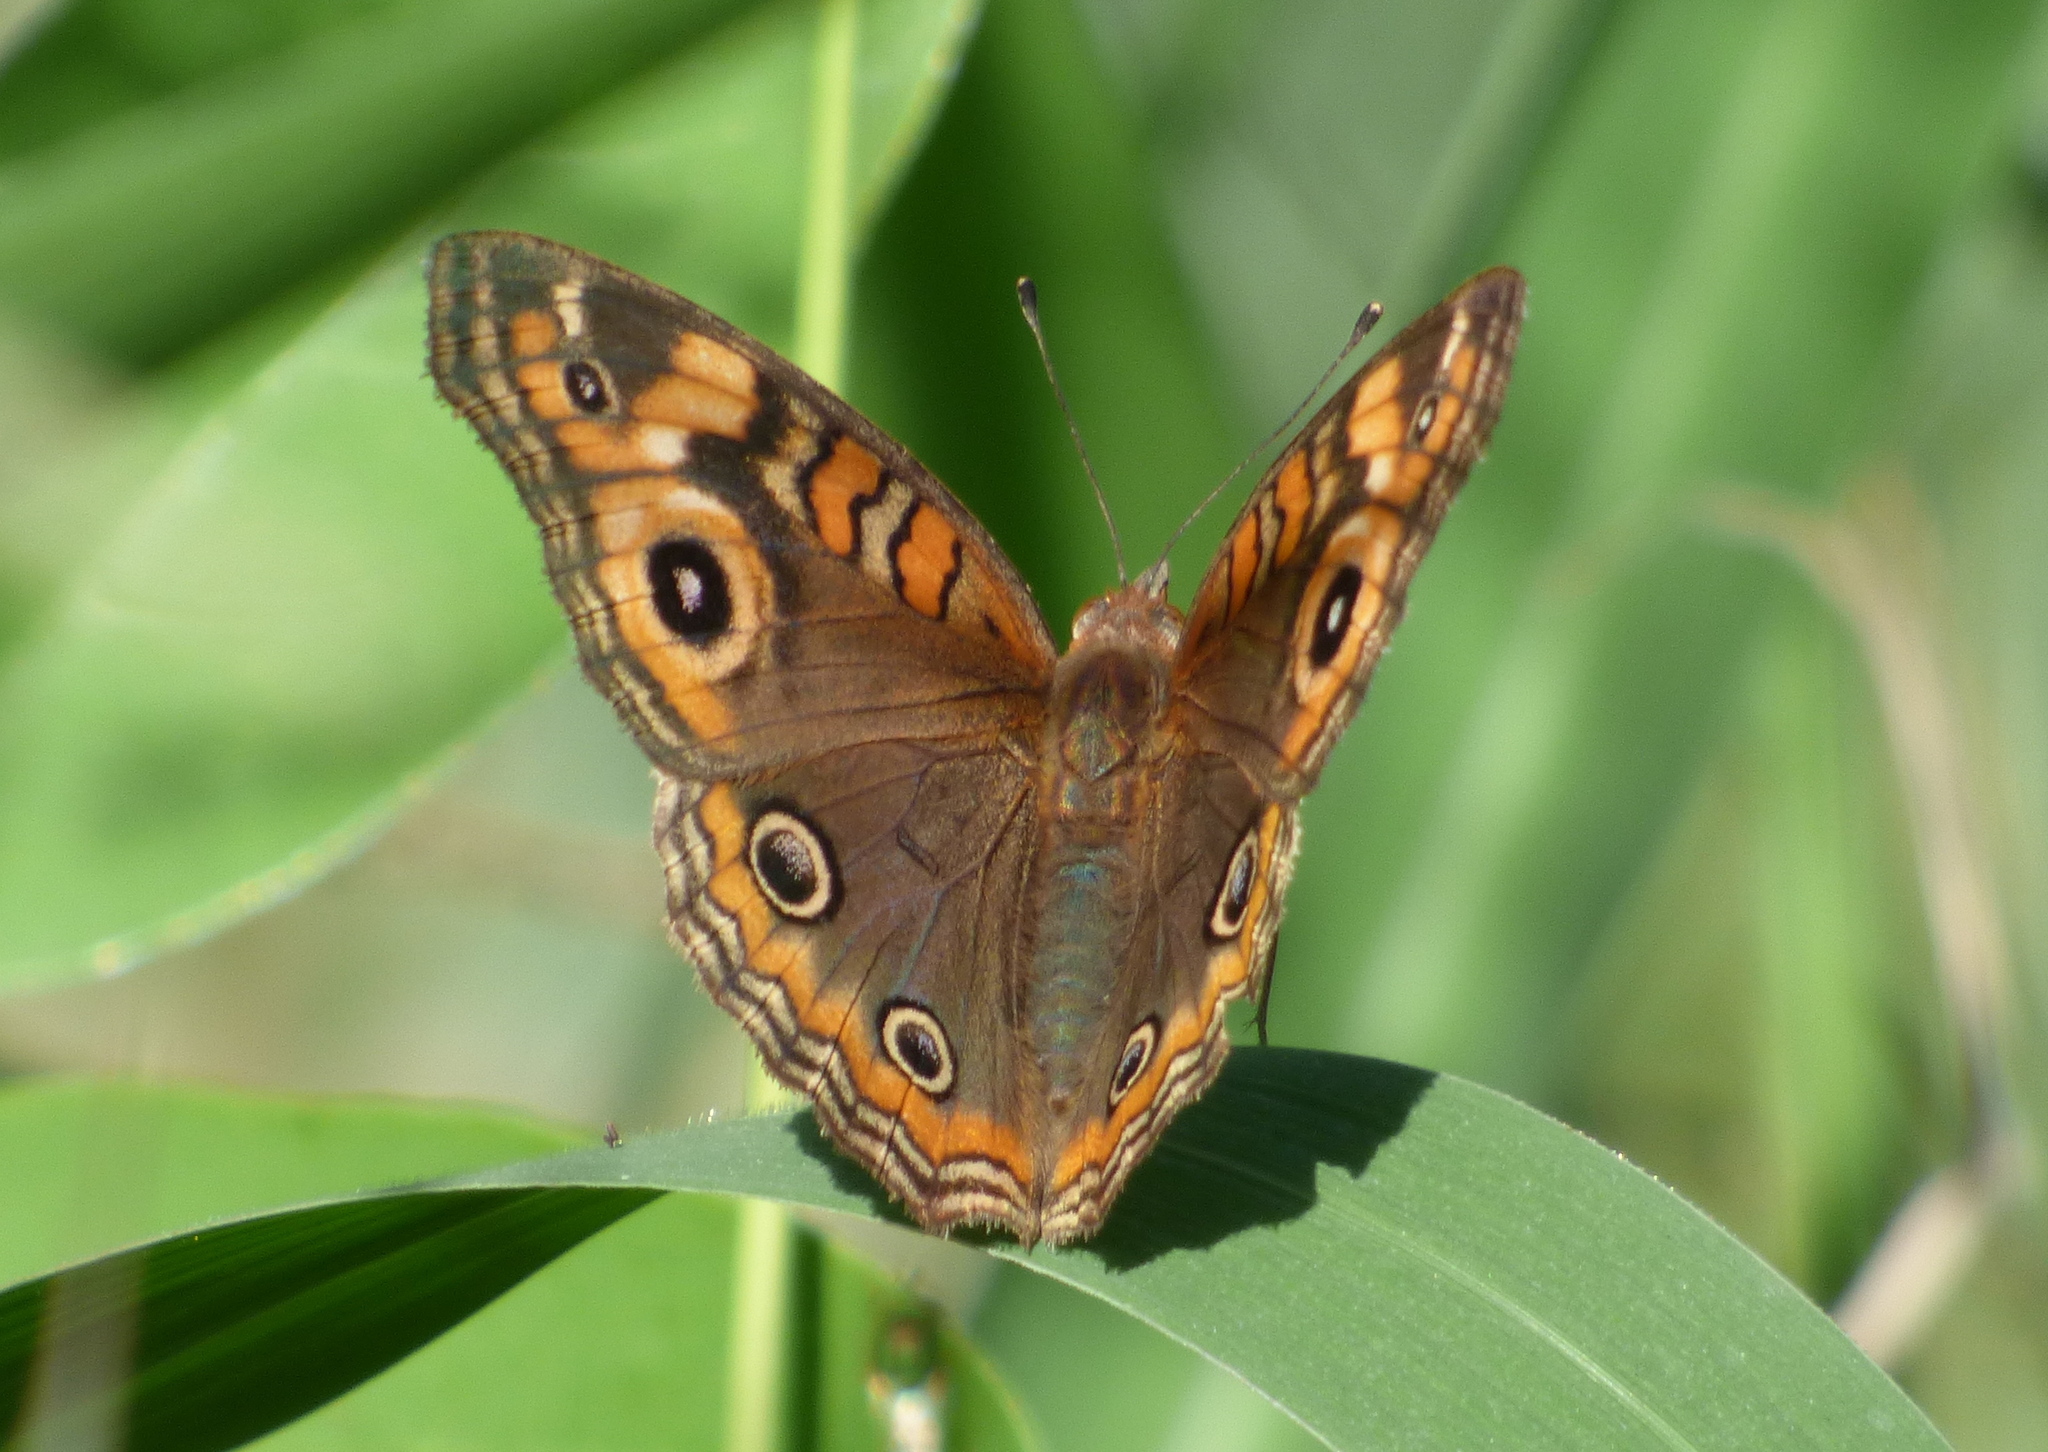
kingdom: Animalia
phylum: Arthropoda
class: Insecta
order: Lepidoptera
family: Nymphalidae
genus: Junonia
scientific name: Junonia lavinia
